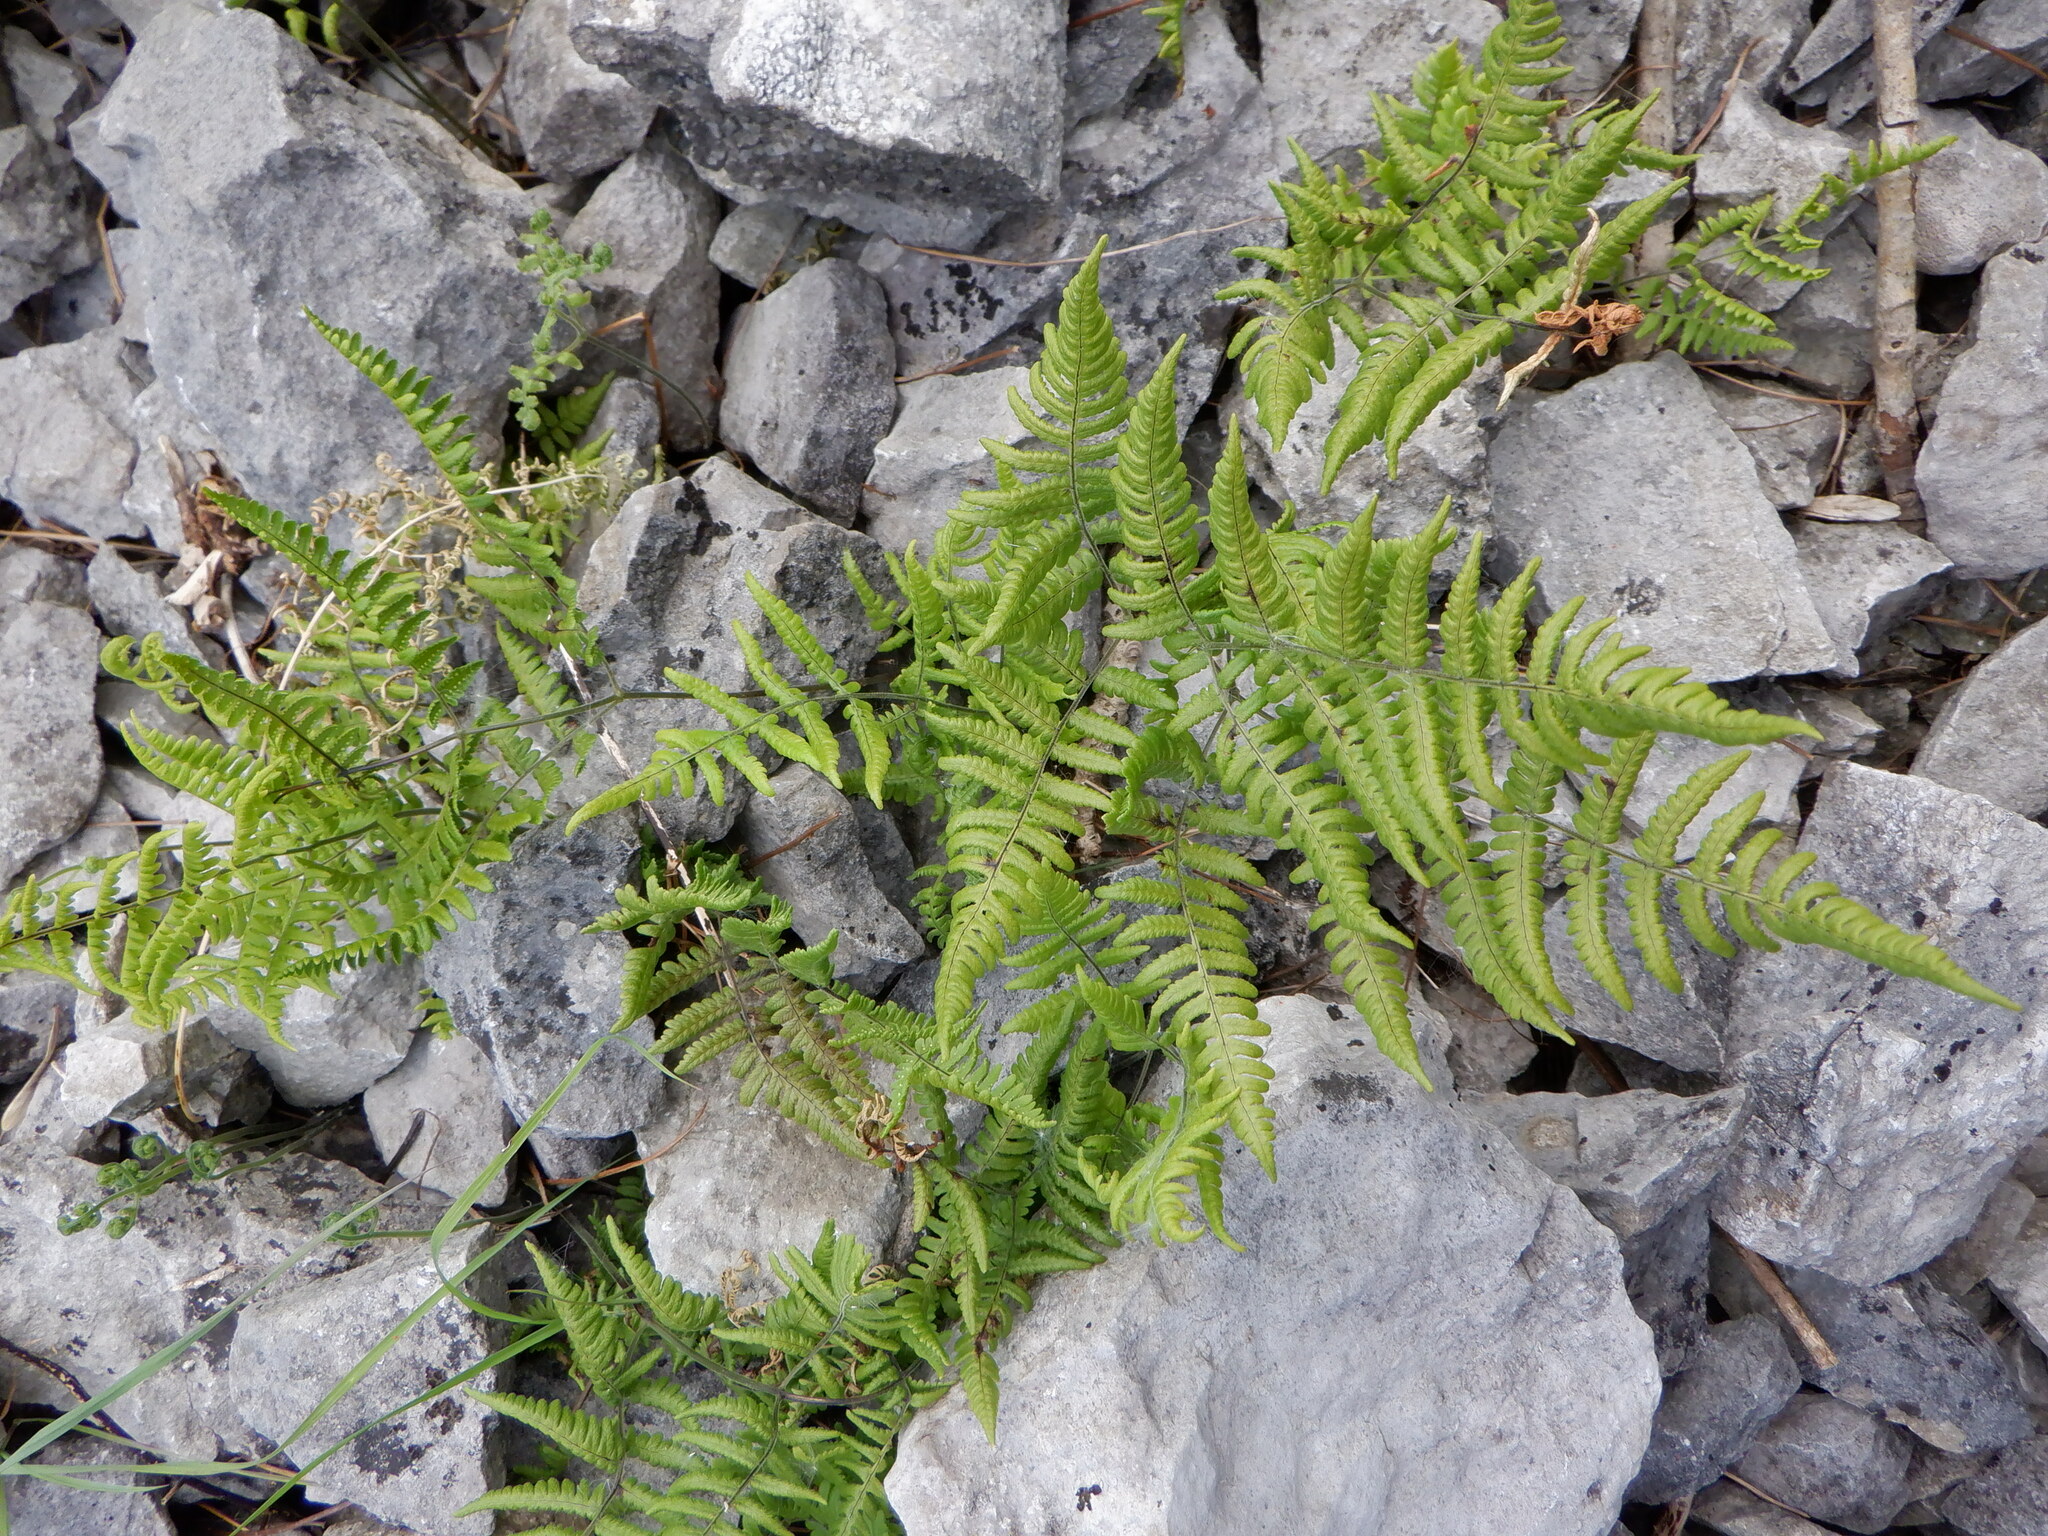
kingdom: Plantae
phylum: Tracheophyta
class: Polypodiopsida
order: Polypodiales
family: Cystopteridaceae
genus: Gymnocarpium
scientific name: Gymnocarpium robertianum
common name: Limestone fern
